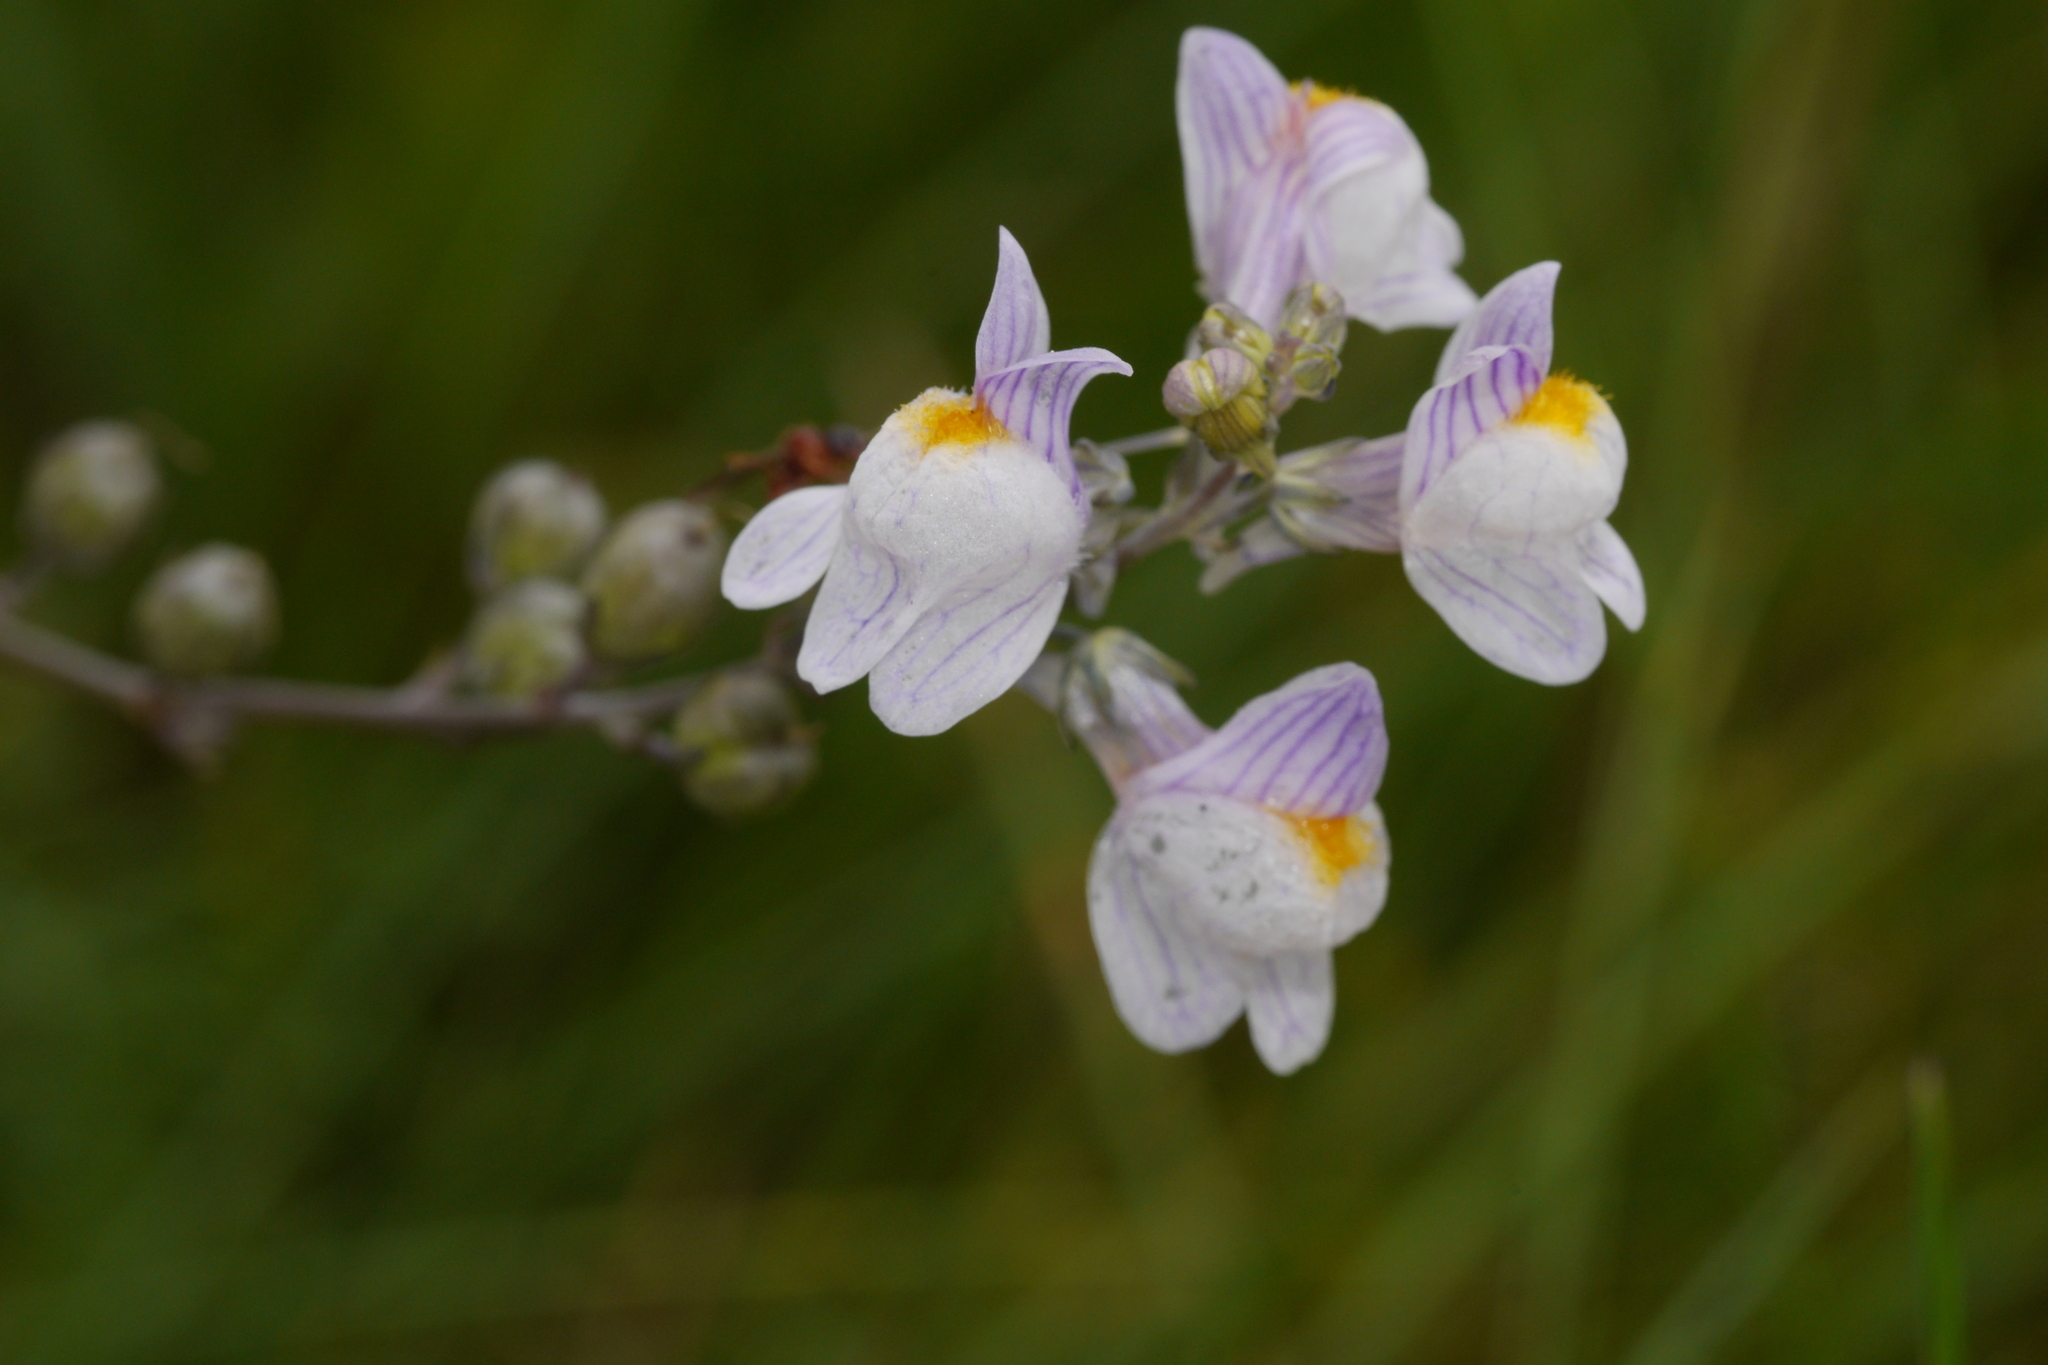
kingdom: Plantae
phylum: Tracheophyta
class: Magnoliopsida
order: Lamiales
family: Plantaginaceae
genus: Linaria
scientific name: Linaria repens
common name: Pale toadflax
